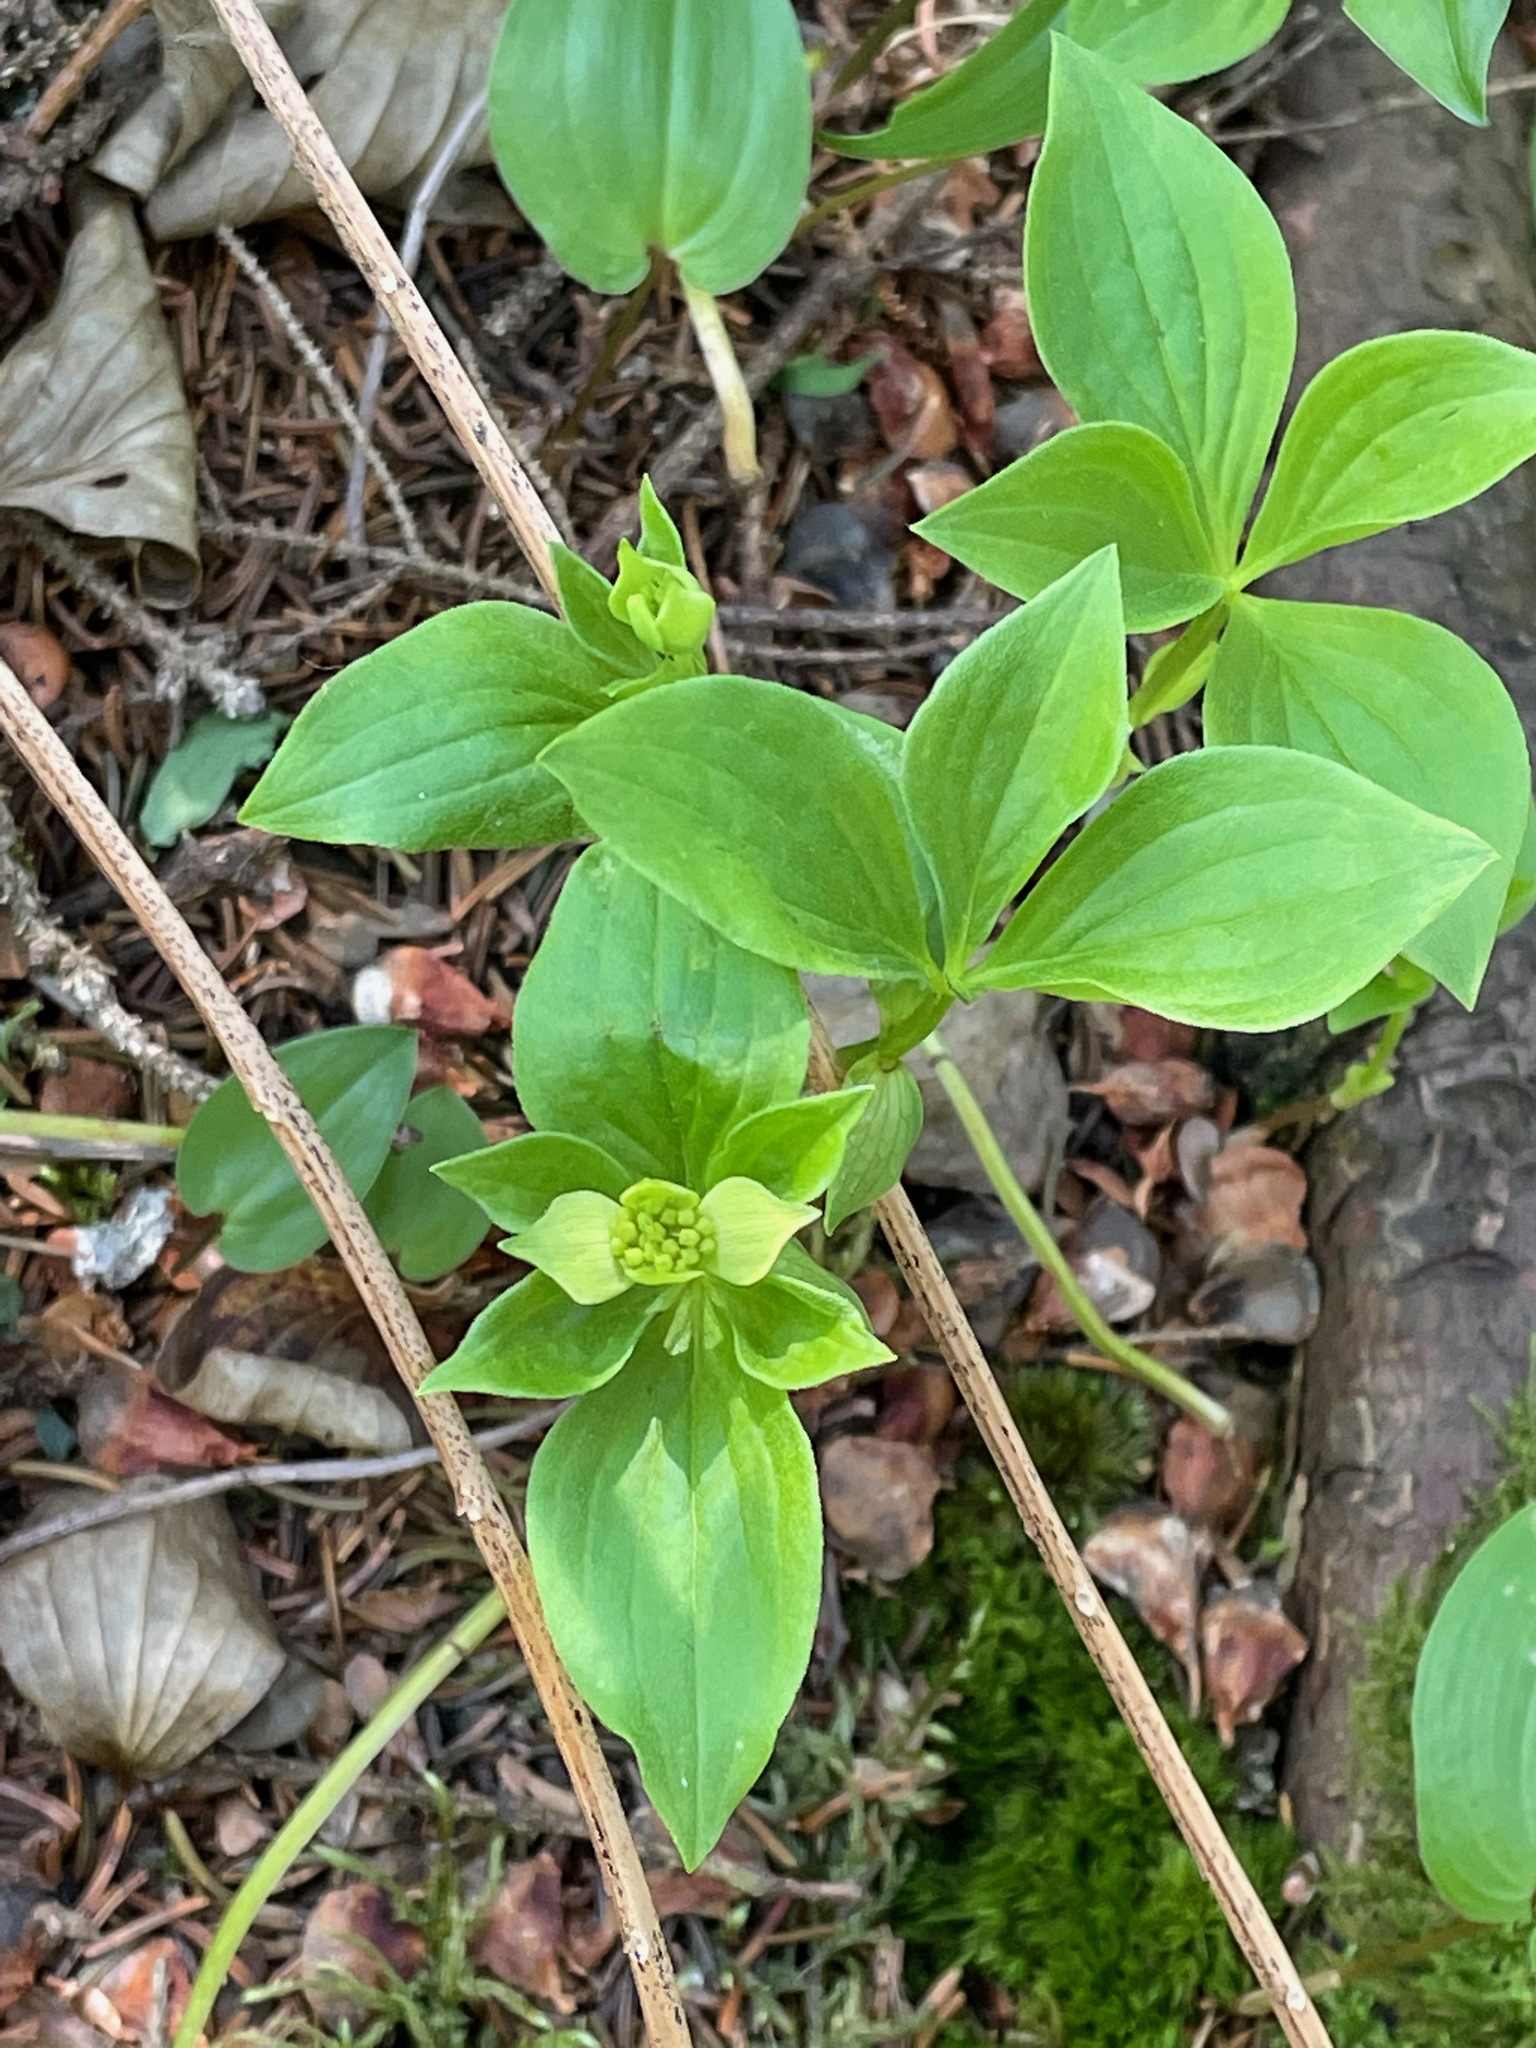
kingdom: Plantae
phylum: Tracheophyta
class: Magnoliopsida
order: Cornales
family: Cornaceae
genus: Cornus
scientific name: Cornus canadensis
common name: Creeping dogwood
